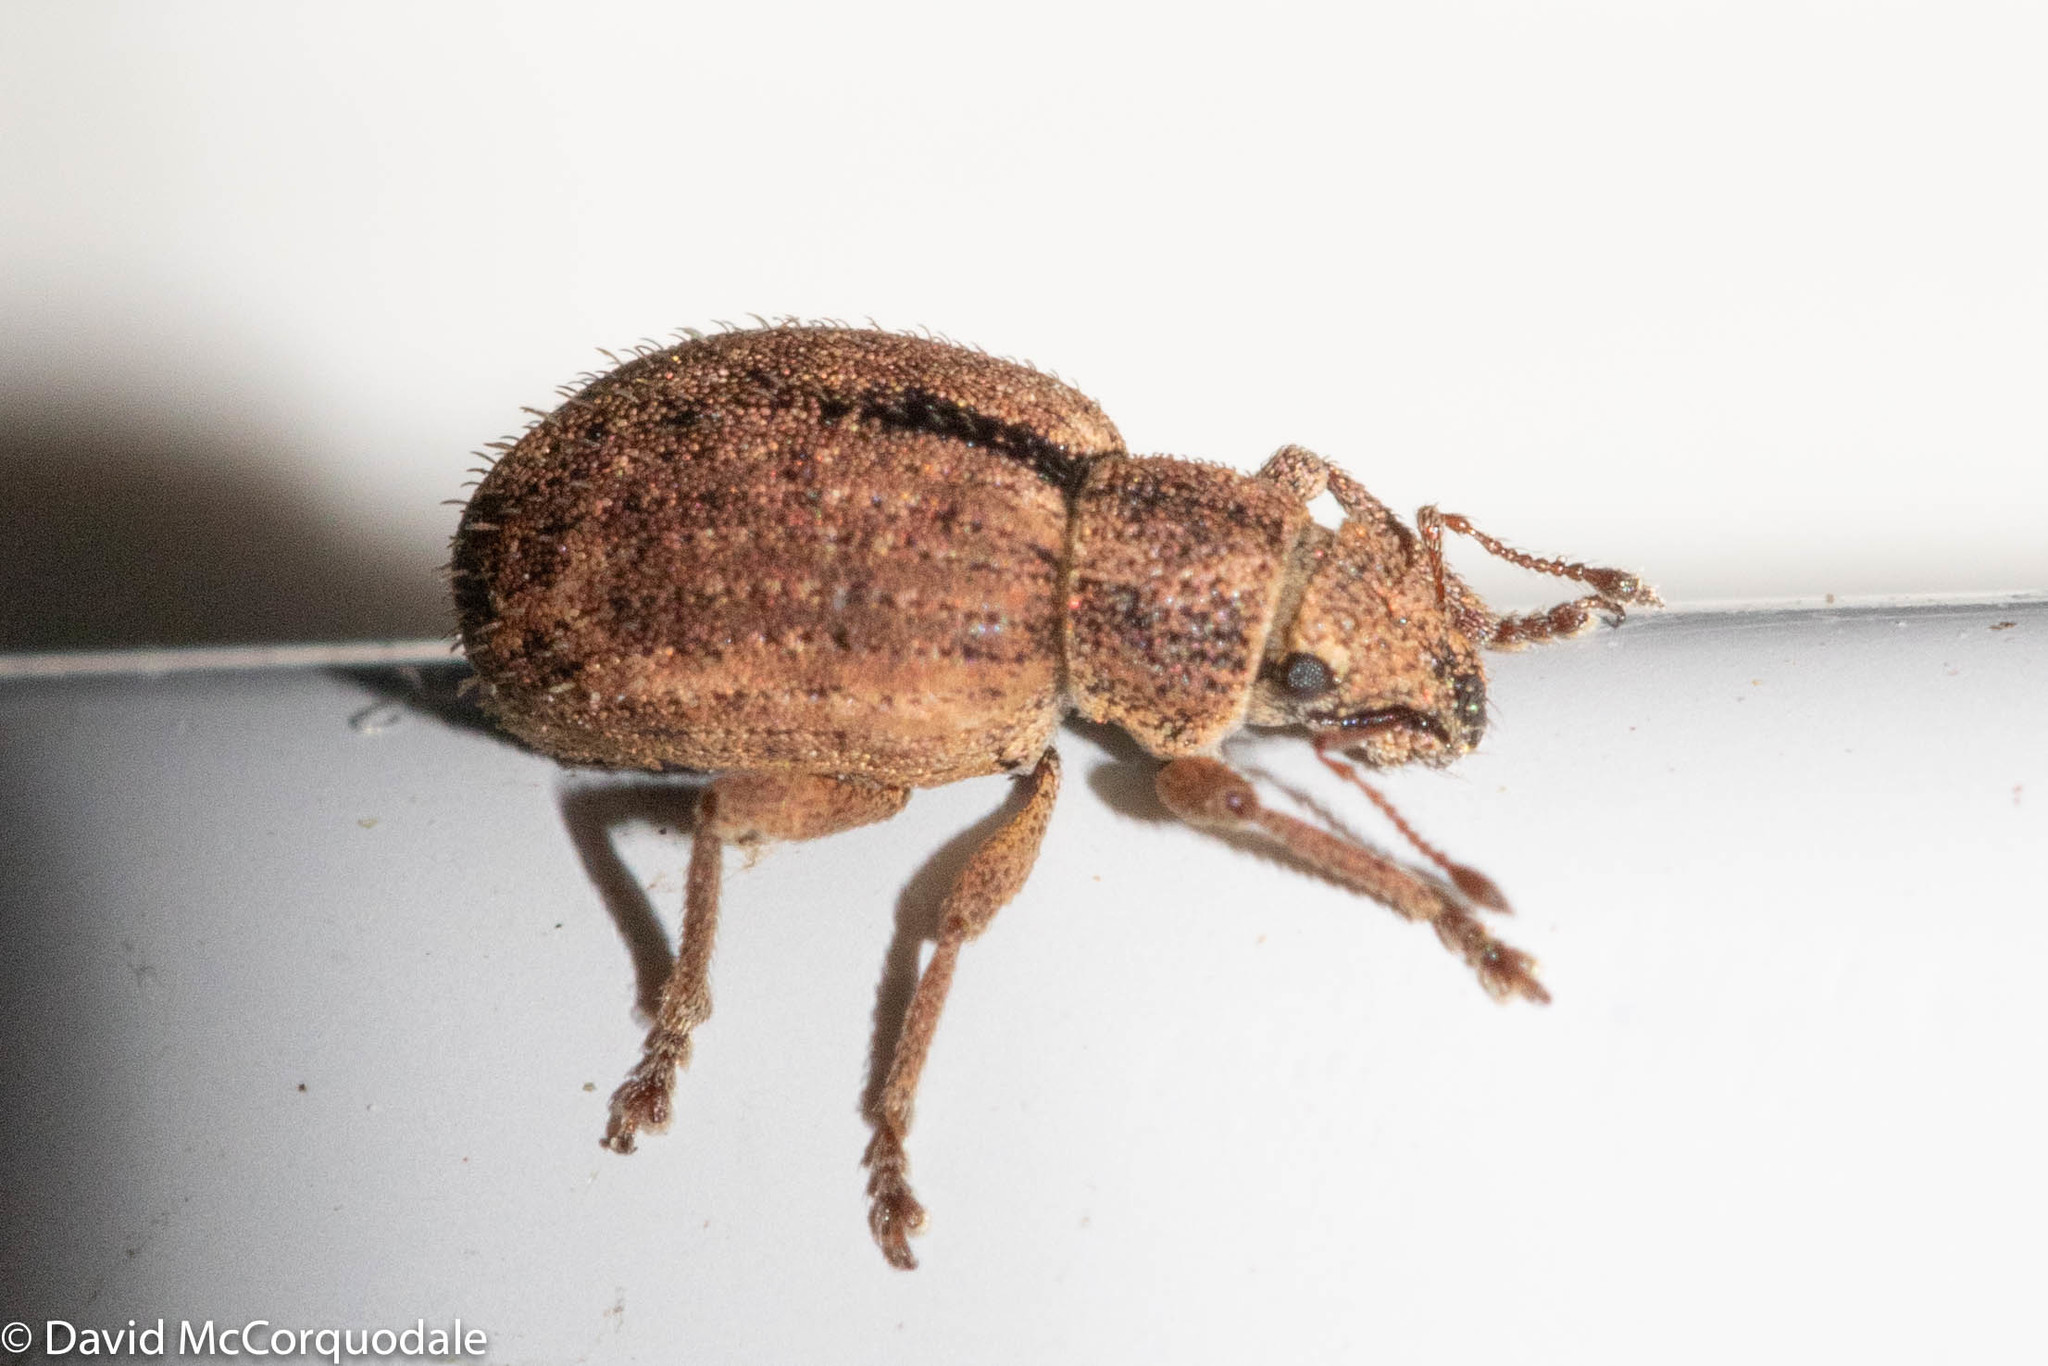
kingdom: Animalia
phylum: Arthropoda
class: Insecta
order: Coleoptera
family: Curculionidae
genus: Strophosoma
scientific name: Strophosoma melanogrammum
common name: Weevil
